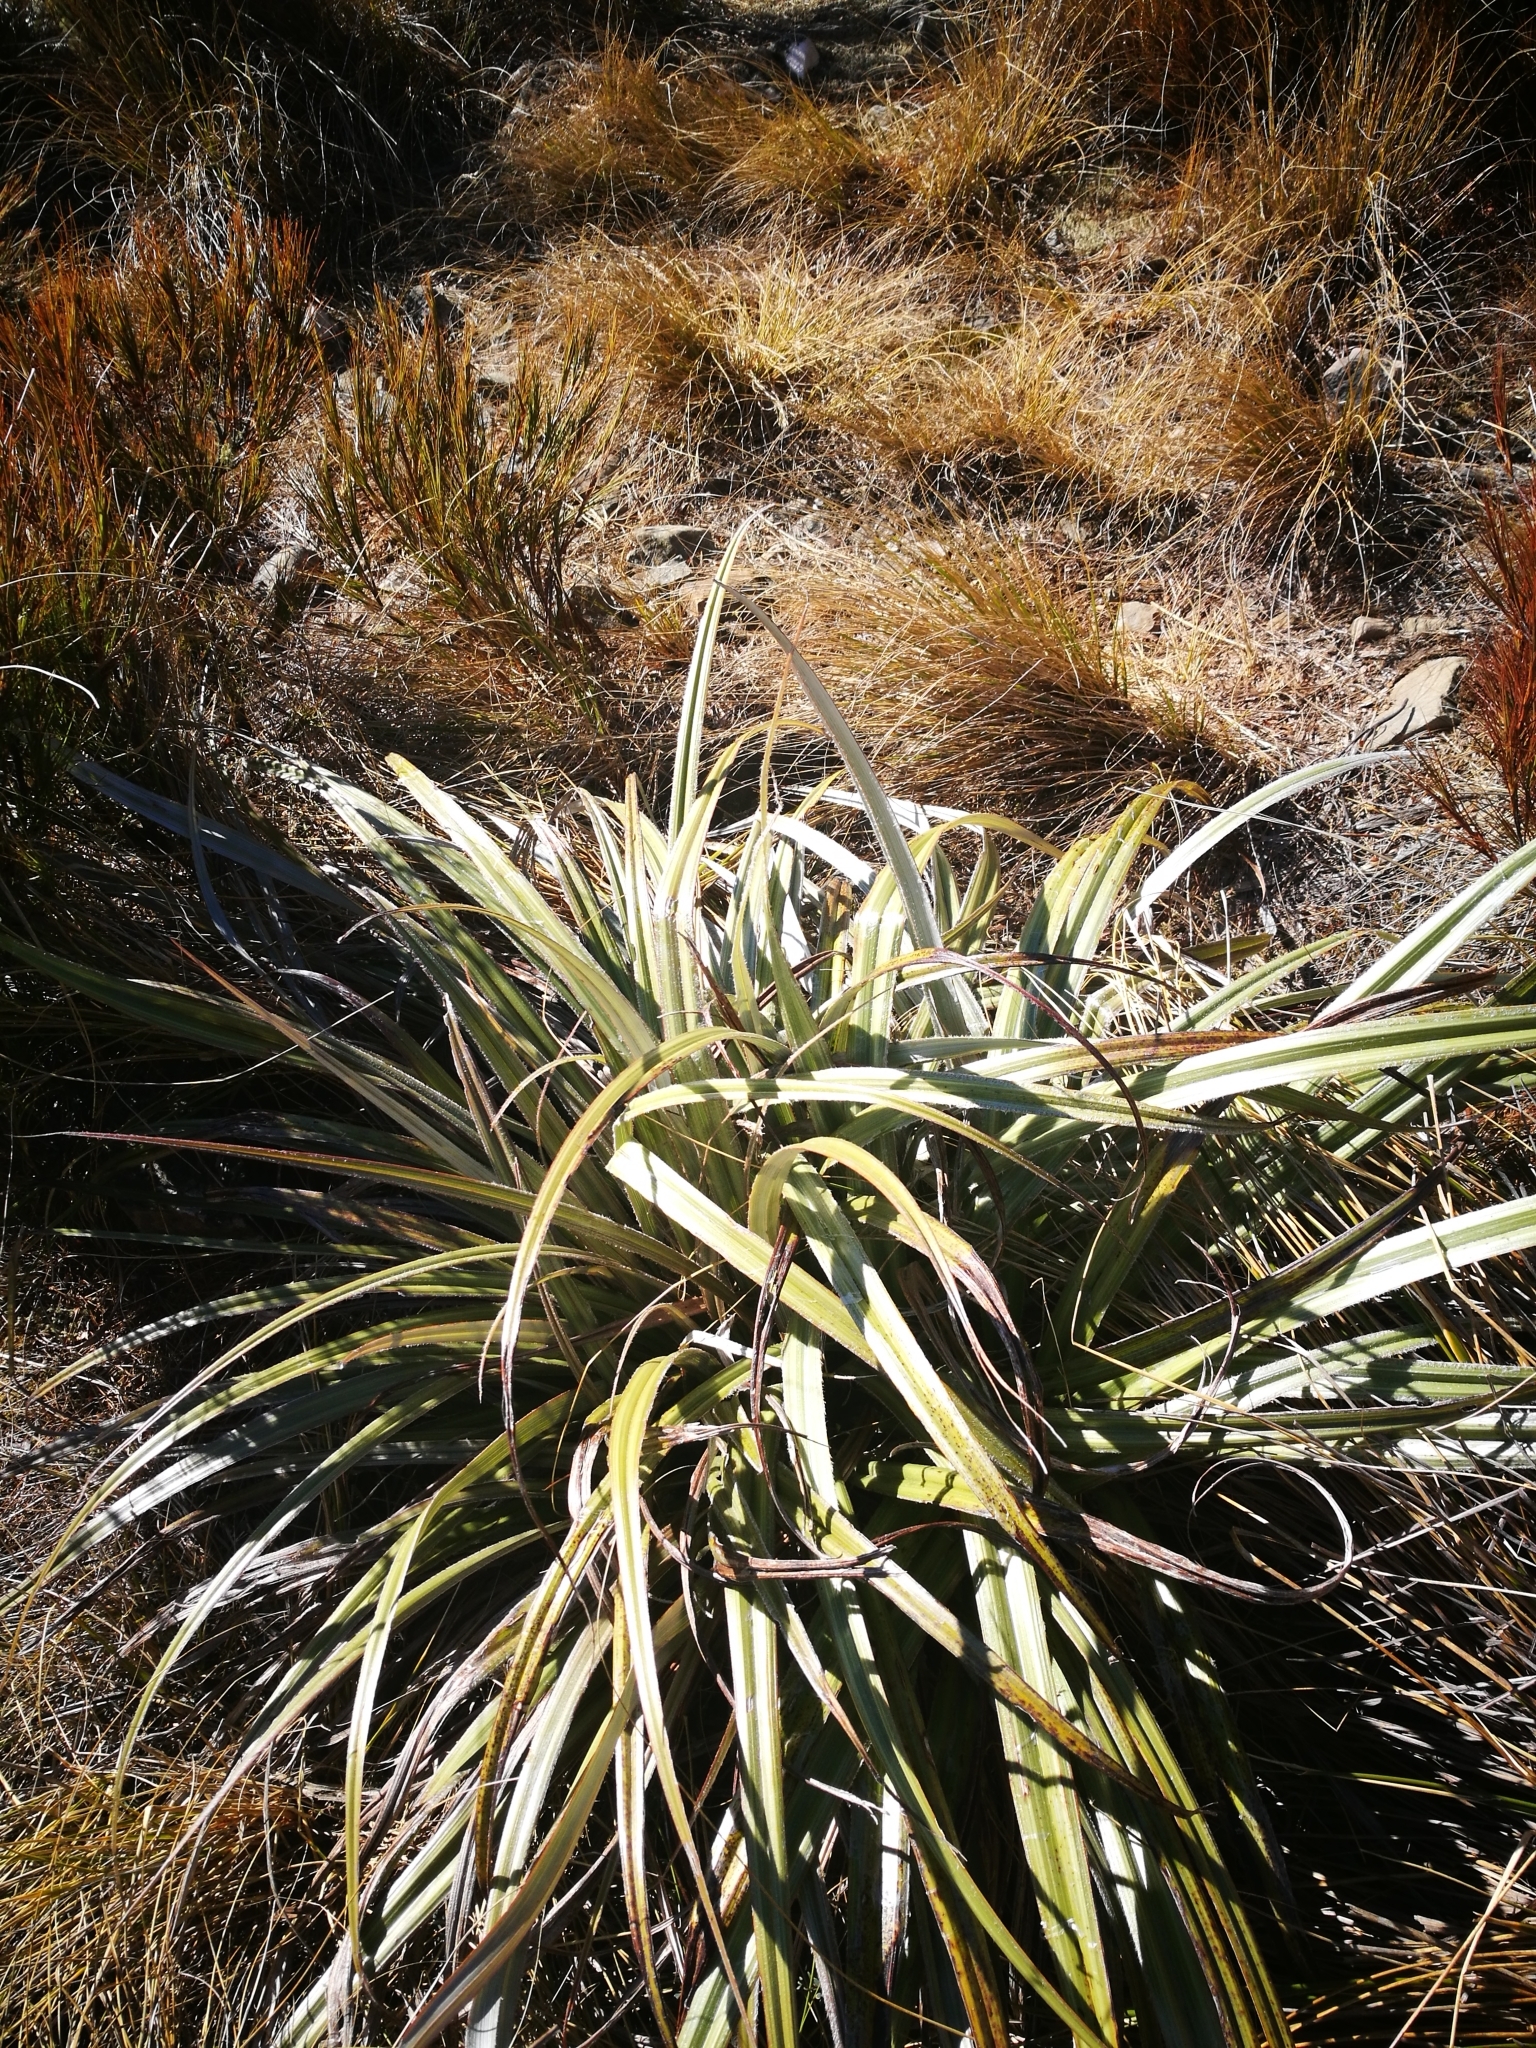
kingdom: Plantae
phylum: Tracheophyta
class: Liliopsida
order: Asparagales
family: Asteliaceae
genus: Astelia
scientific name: Astelia nervosa
